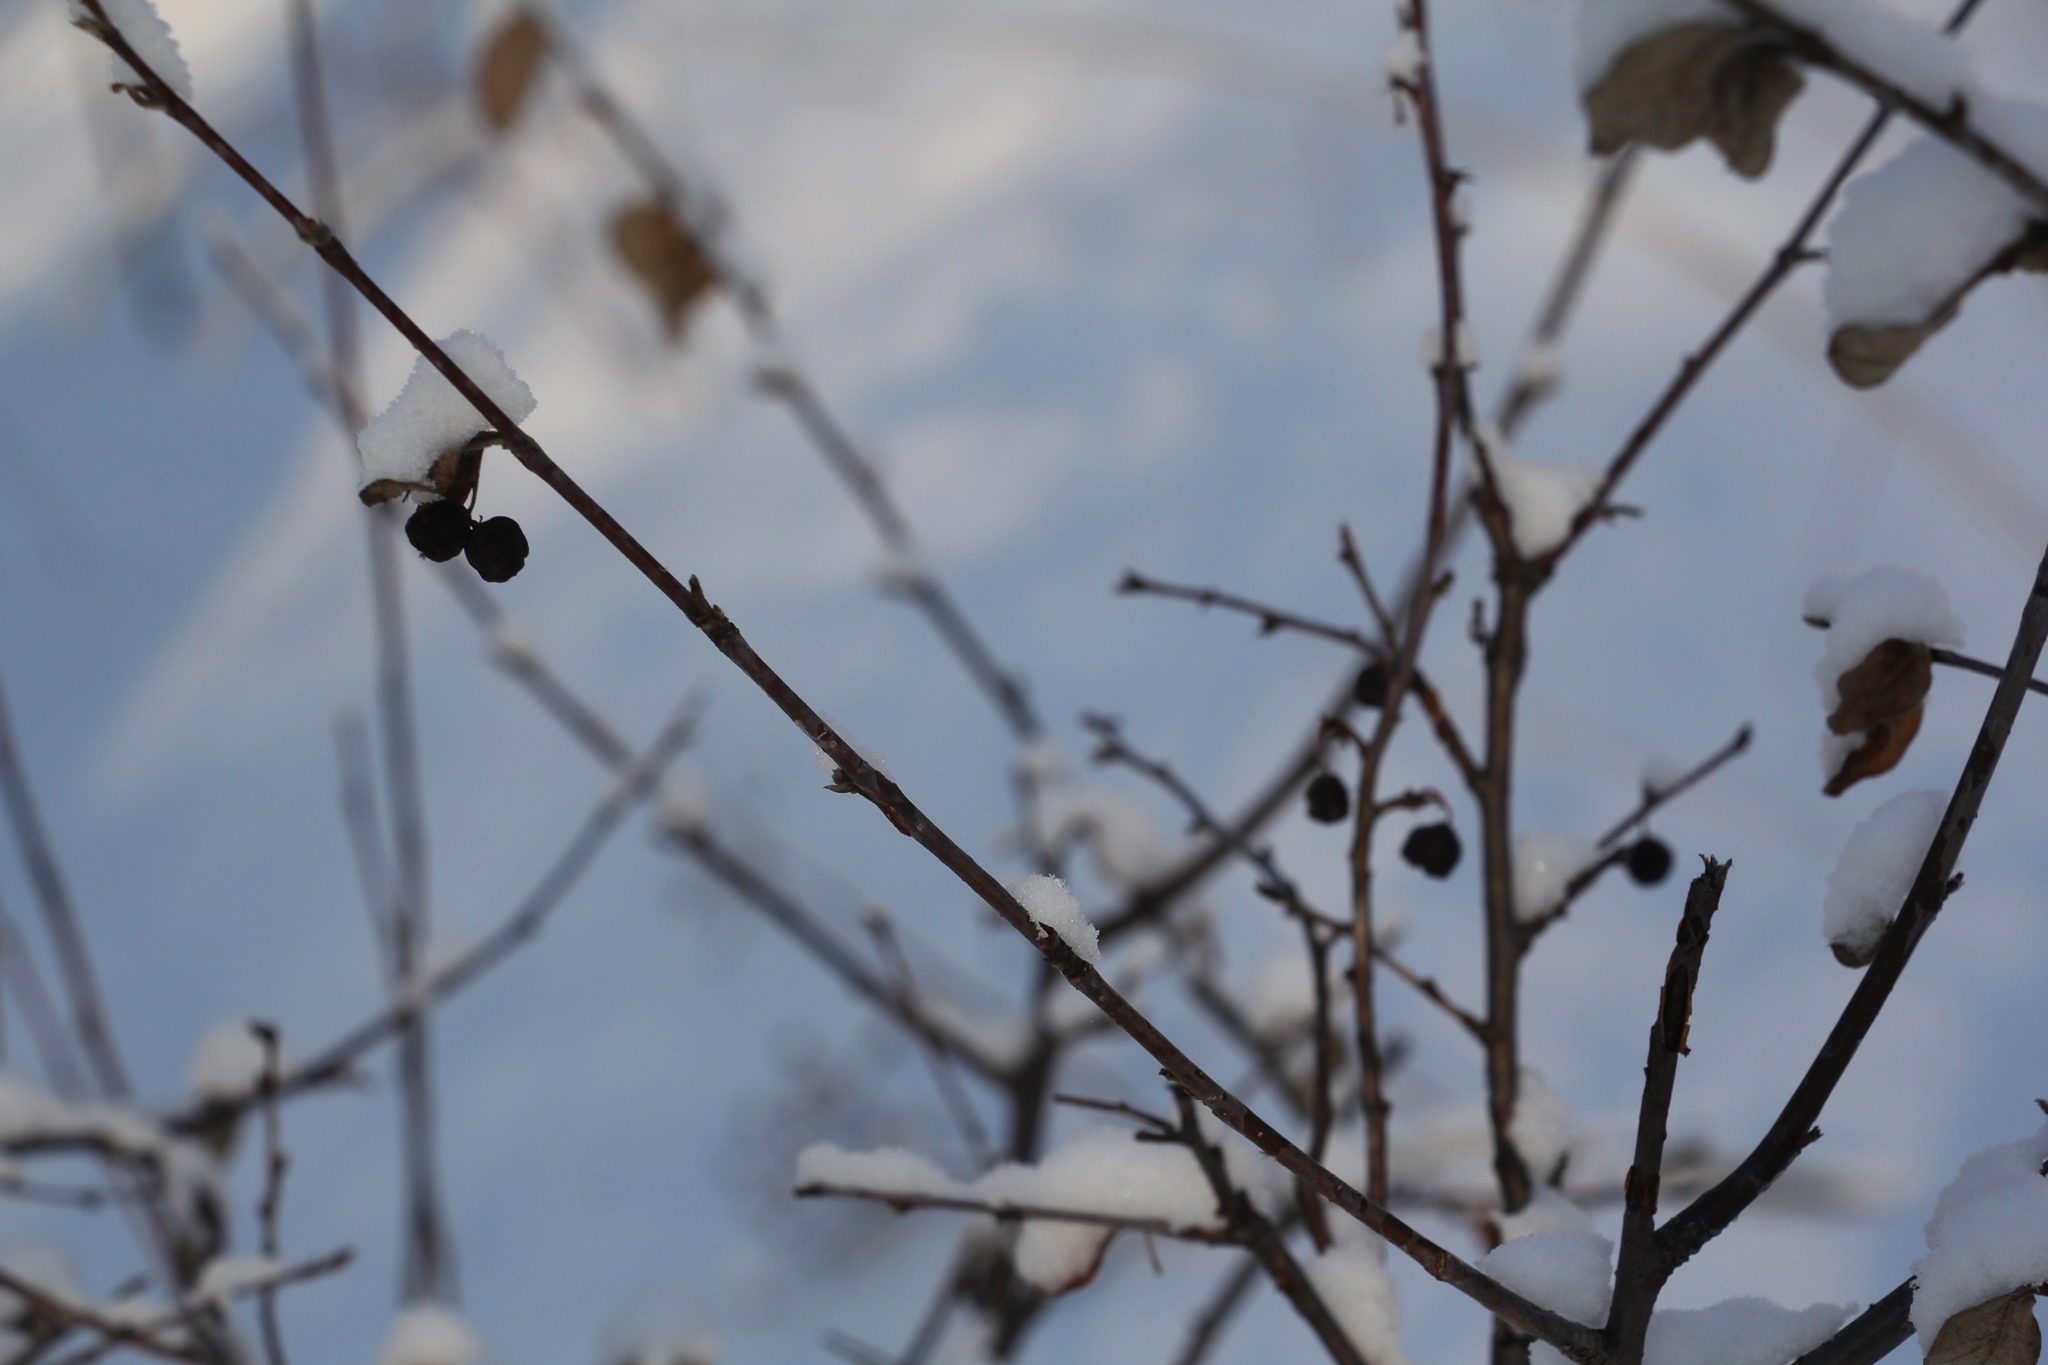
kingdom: Plantae
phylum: Tracheophyta
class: Magnoliopsida
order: Rosales
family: Rosaceae
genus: Cotoneaster
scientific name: Cotoneaster melanocarpus
